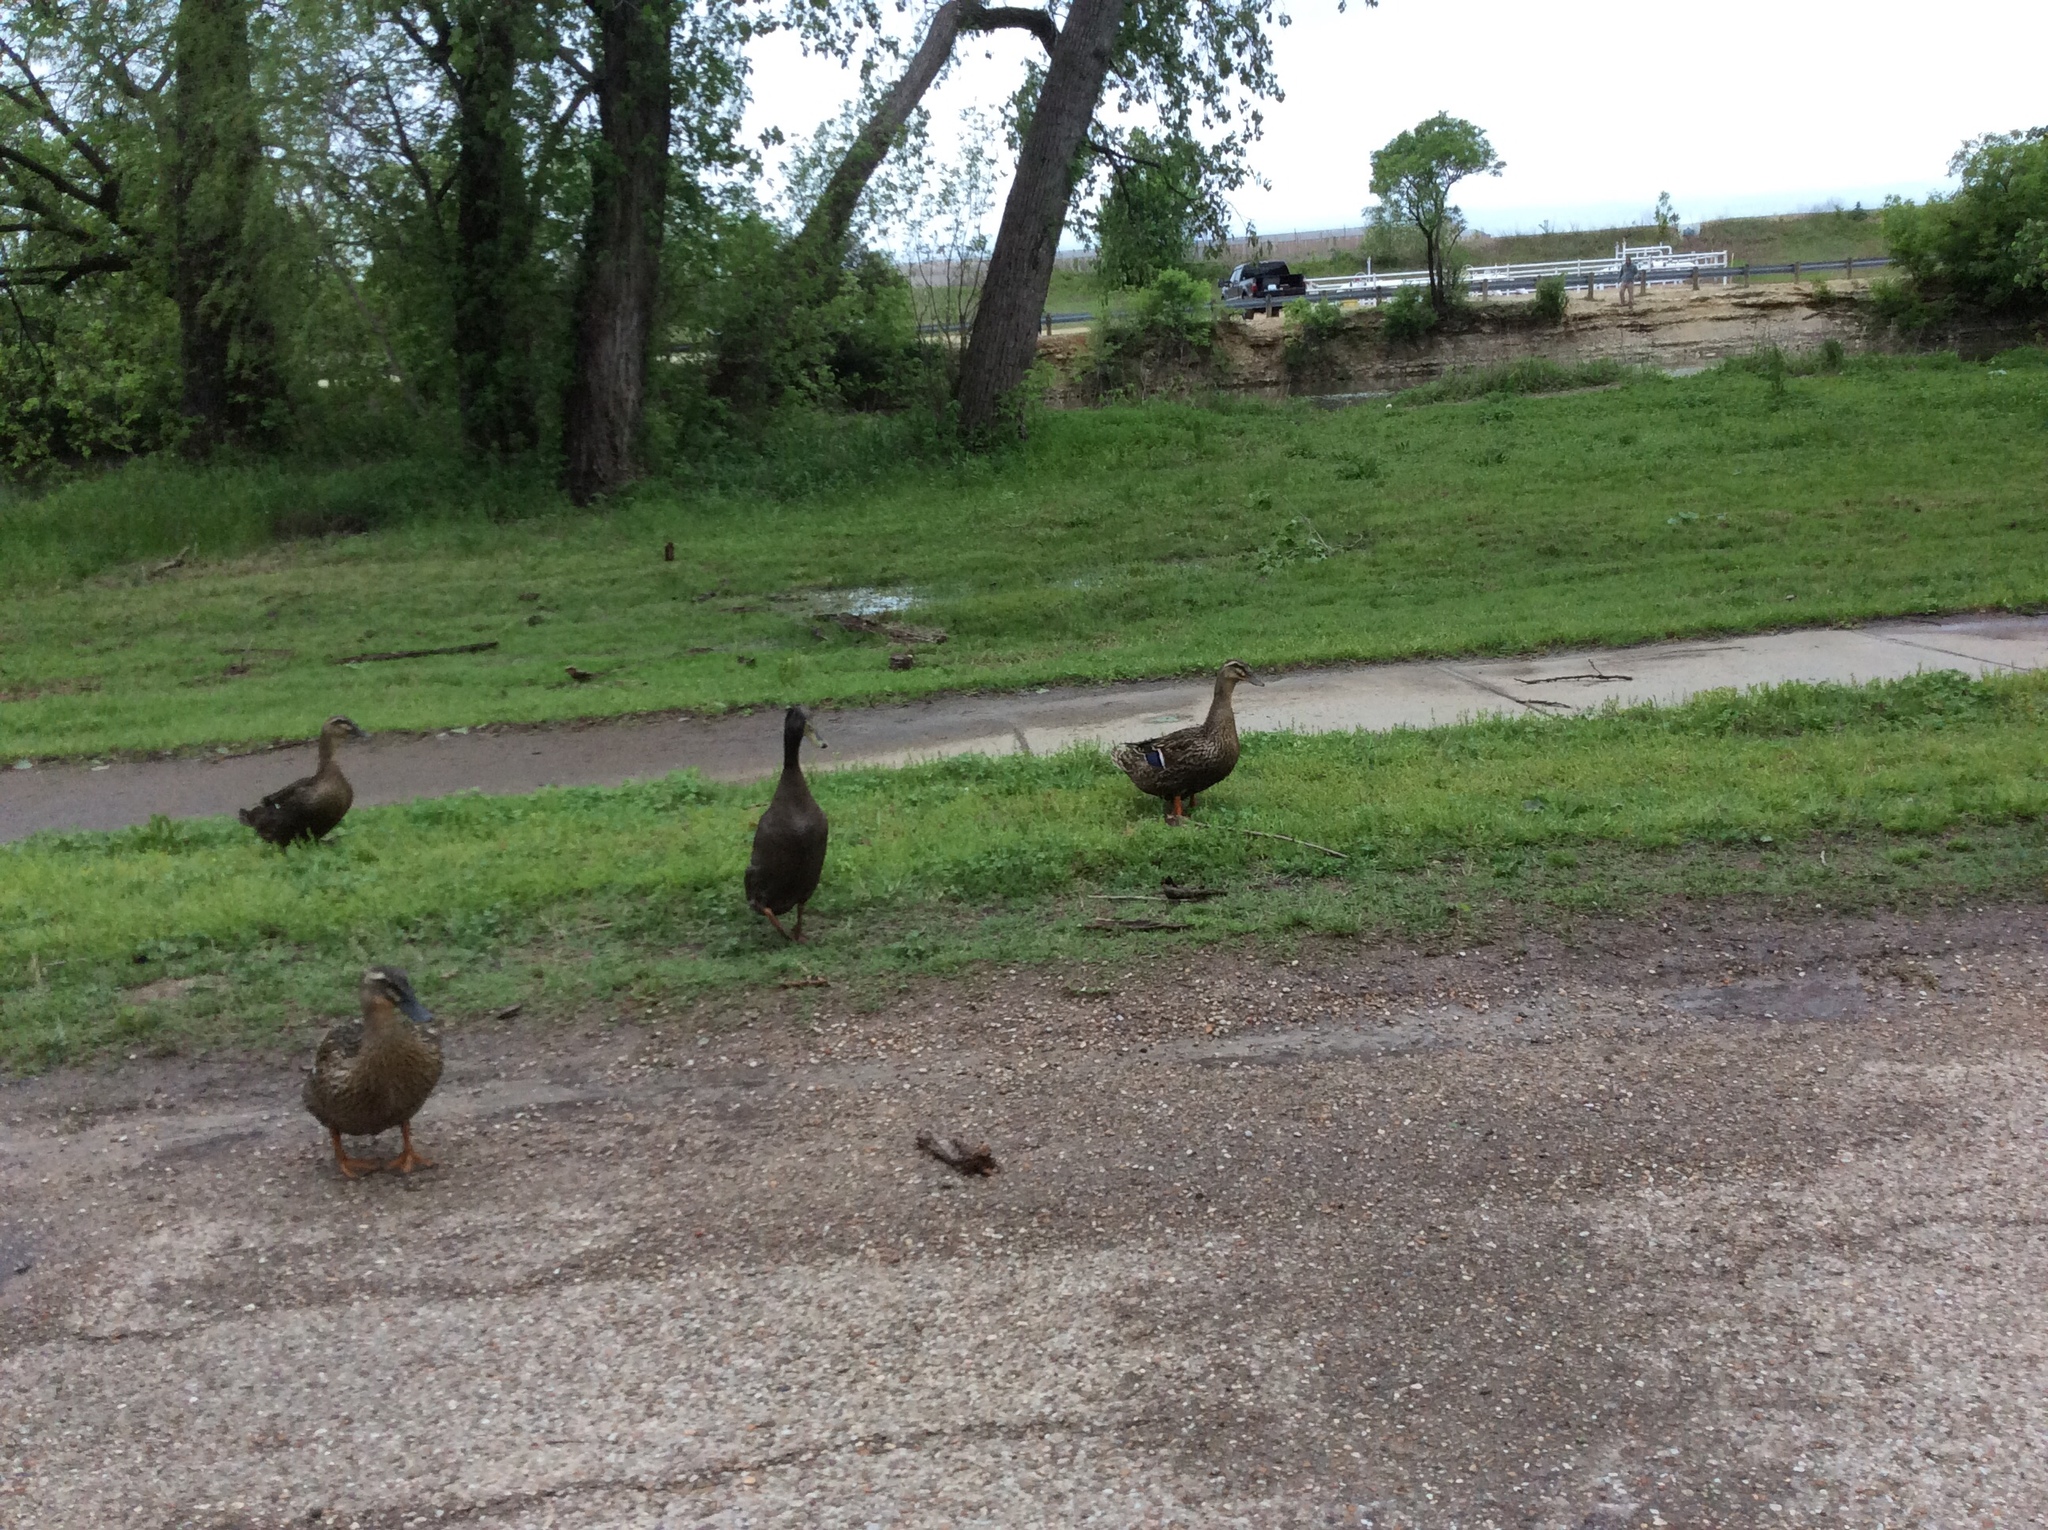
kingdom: Animalia
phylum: Chordata
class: Aves
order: Anseriformes
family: Anatidae
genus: Anas
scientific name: Anas platyrhynchos
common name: Mallard
